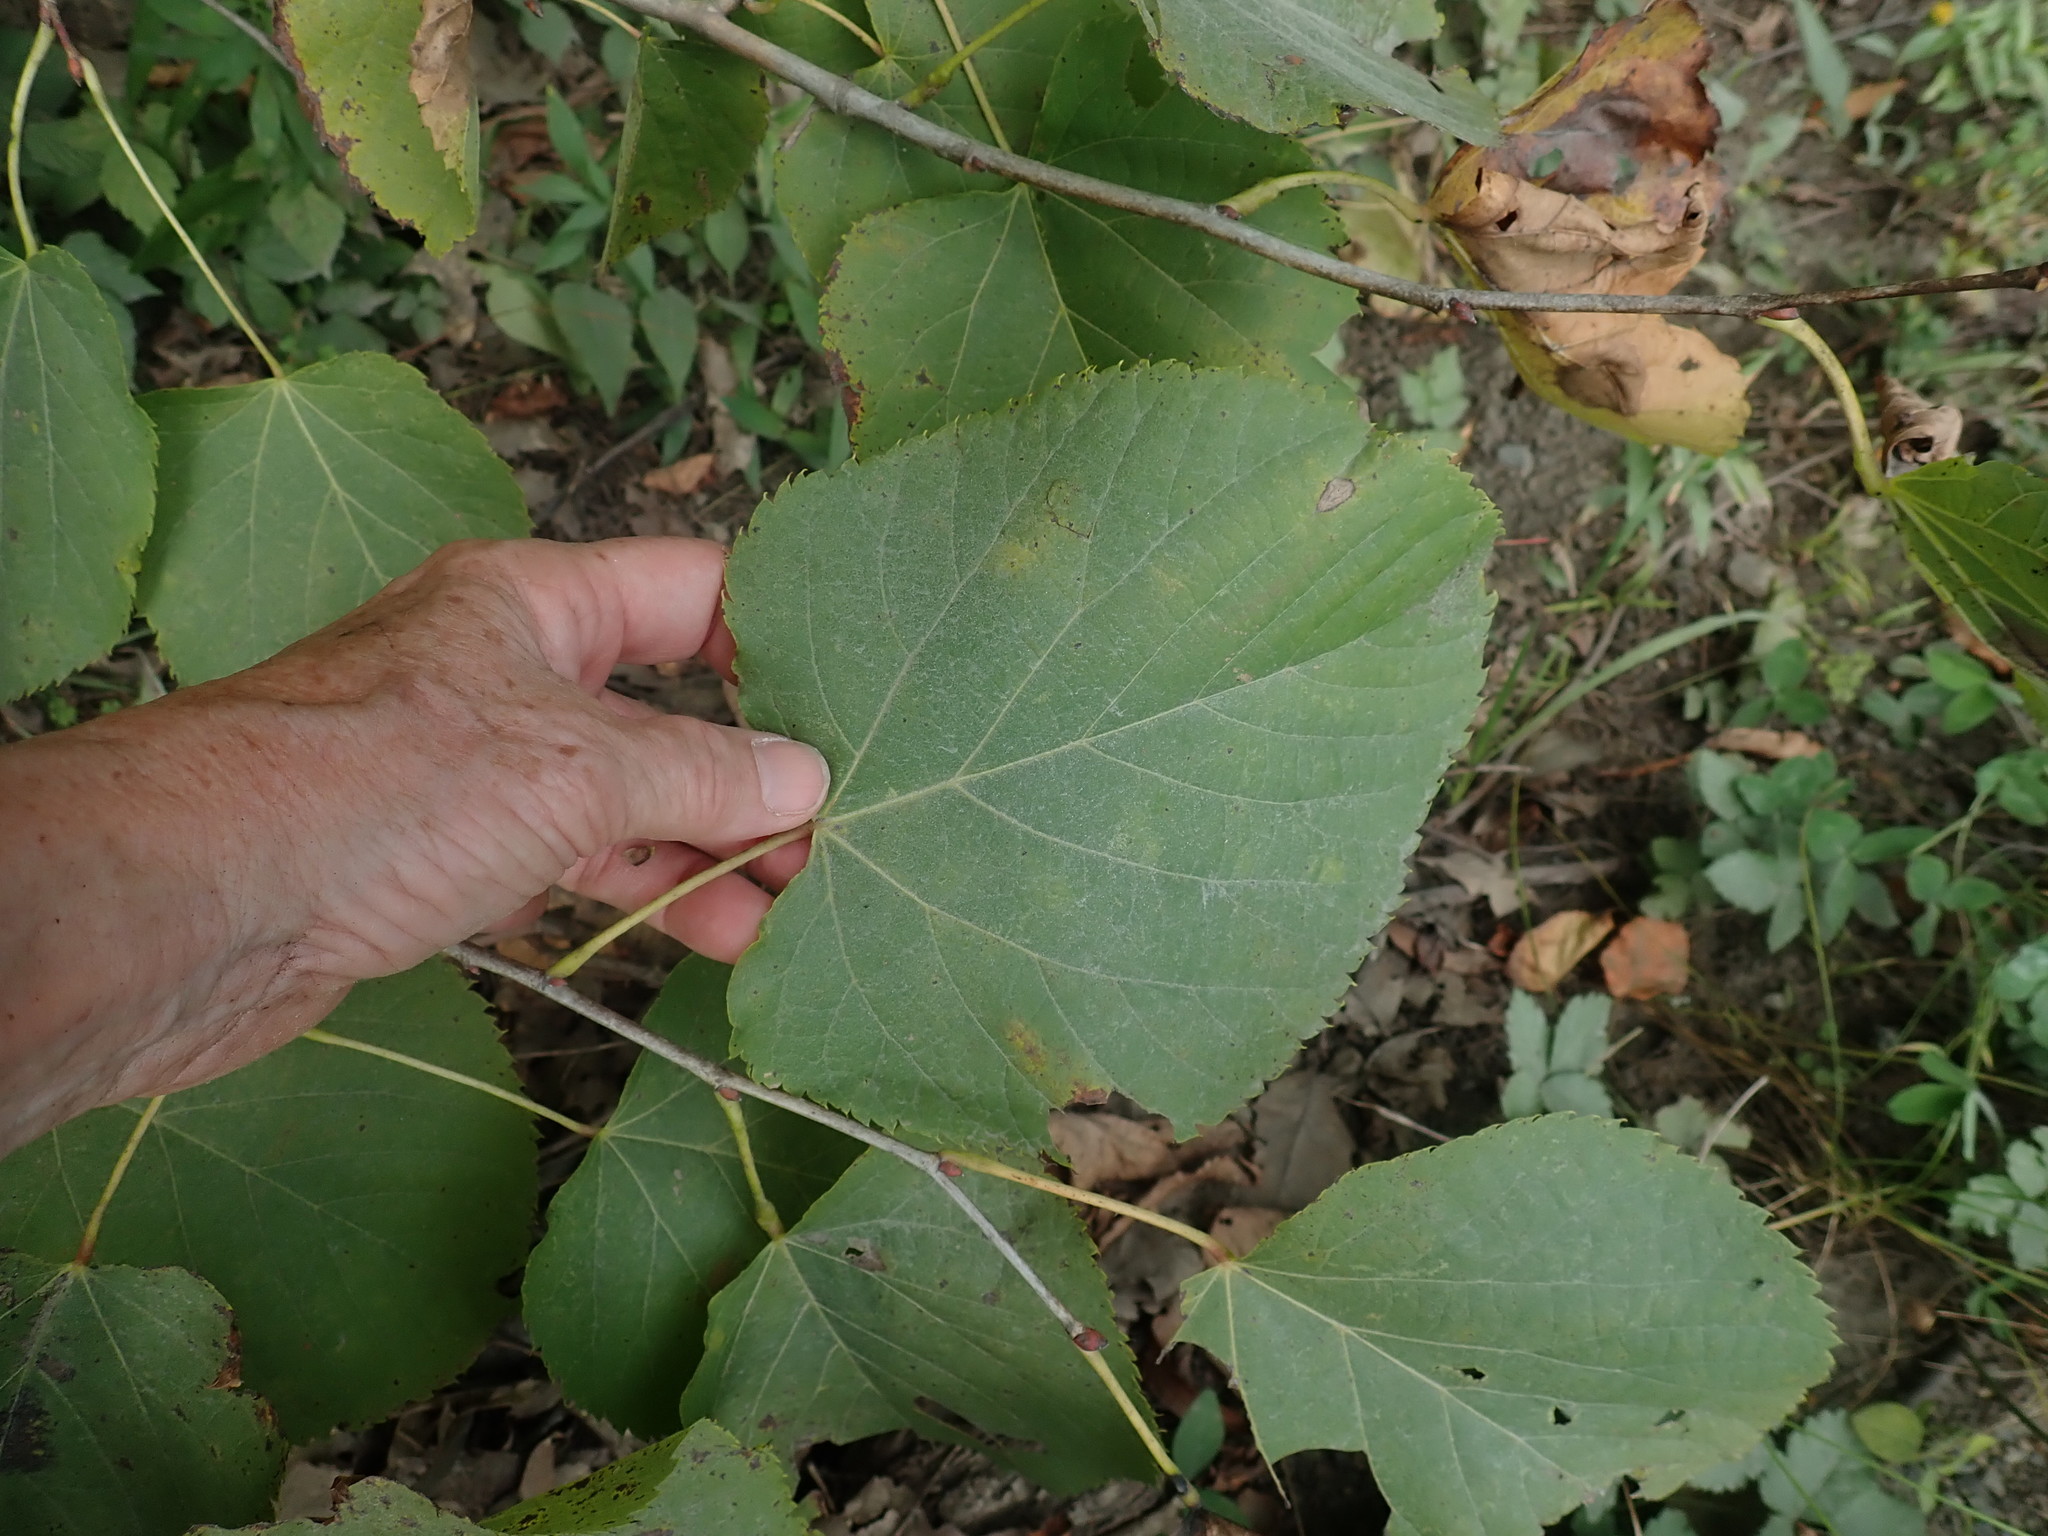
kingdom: Plantae
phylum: Tracheophyta
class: Magnoliopsida
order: Malvales
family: Malvaceae
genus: Tilia
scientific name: Tilia americana
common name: Basswood
